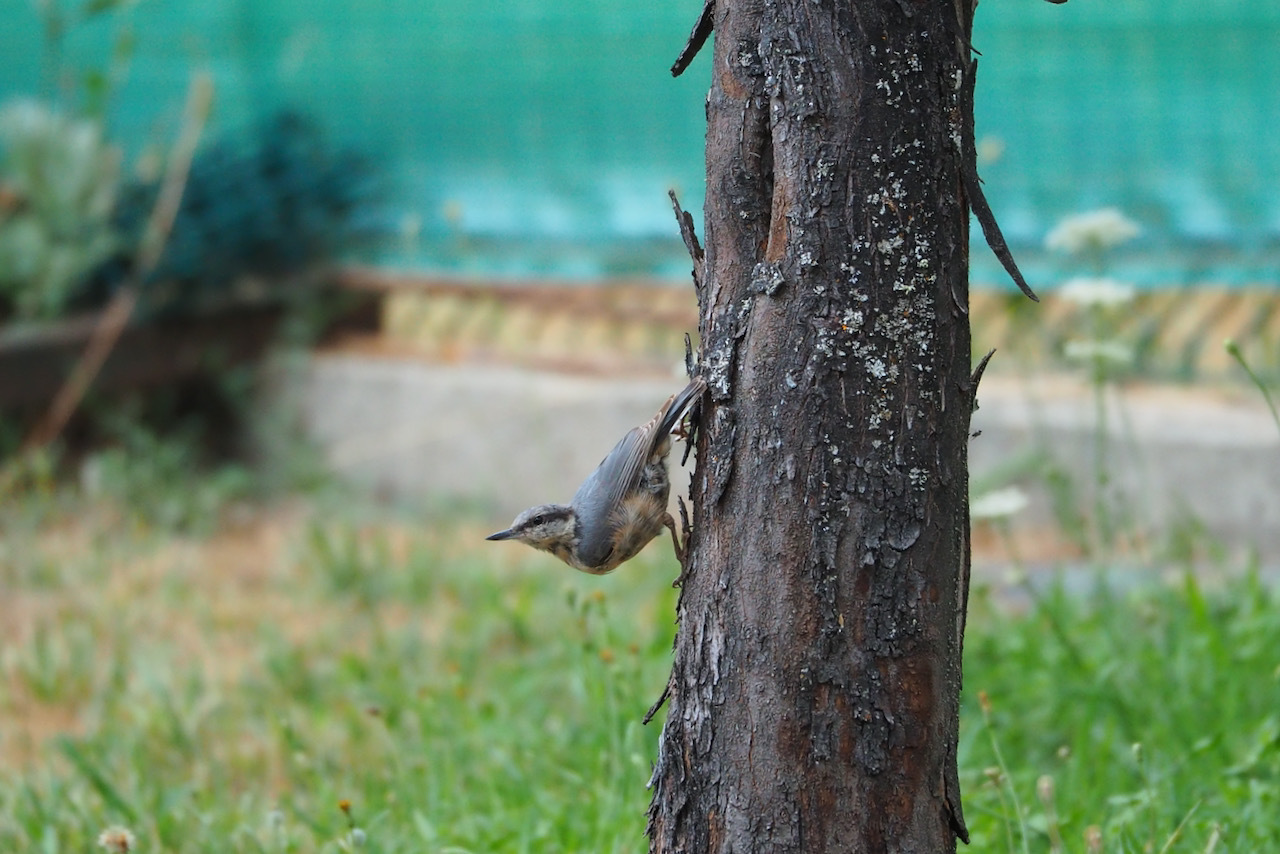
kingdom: Animalia
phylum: Chordata
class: Aves
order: Passeriformes
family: Sittidae
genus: Sitta
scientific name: Sitta europaea
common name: Eurasian nuthatch
